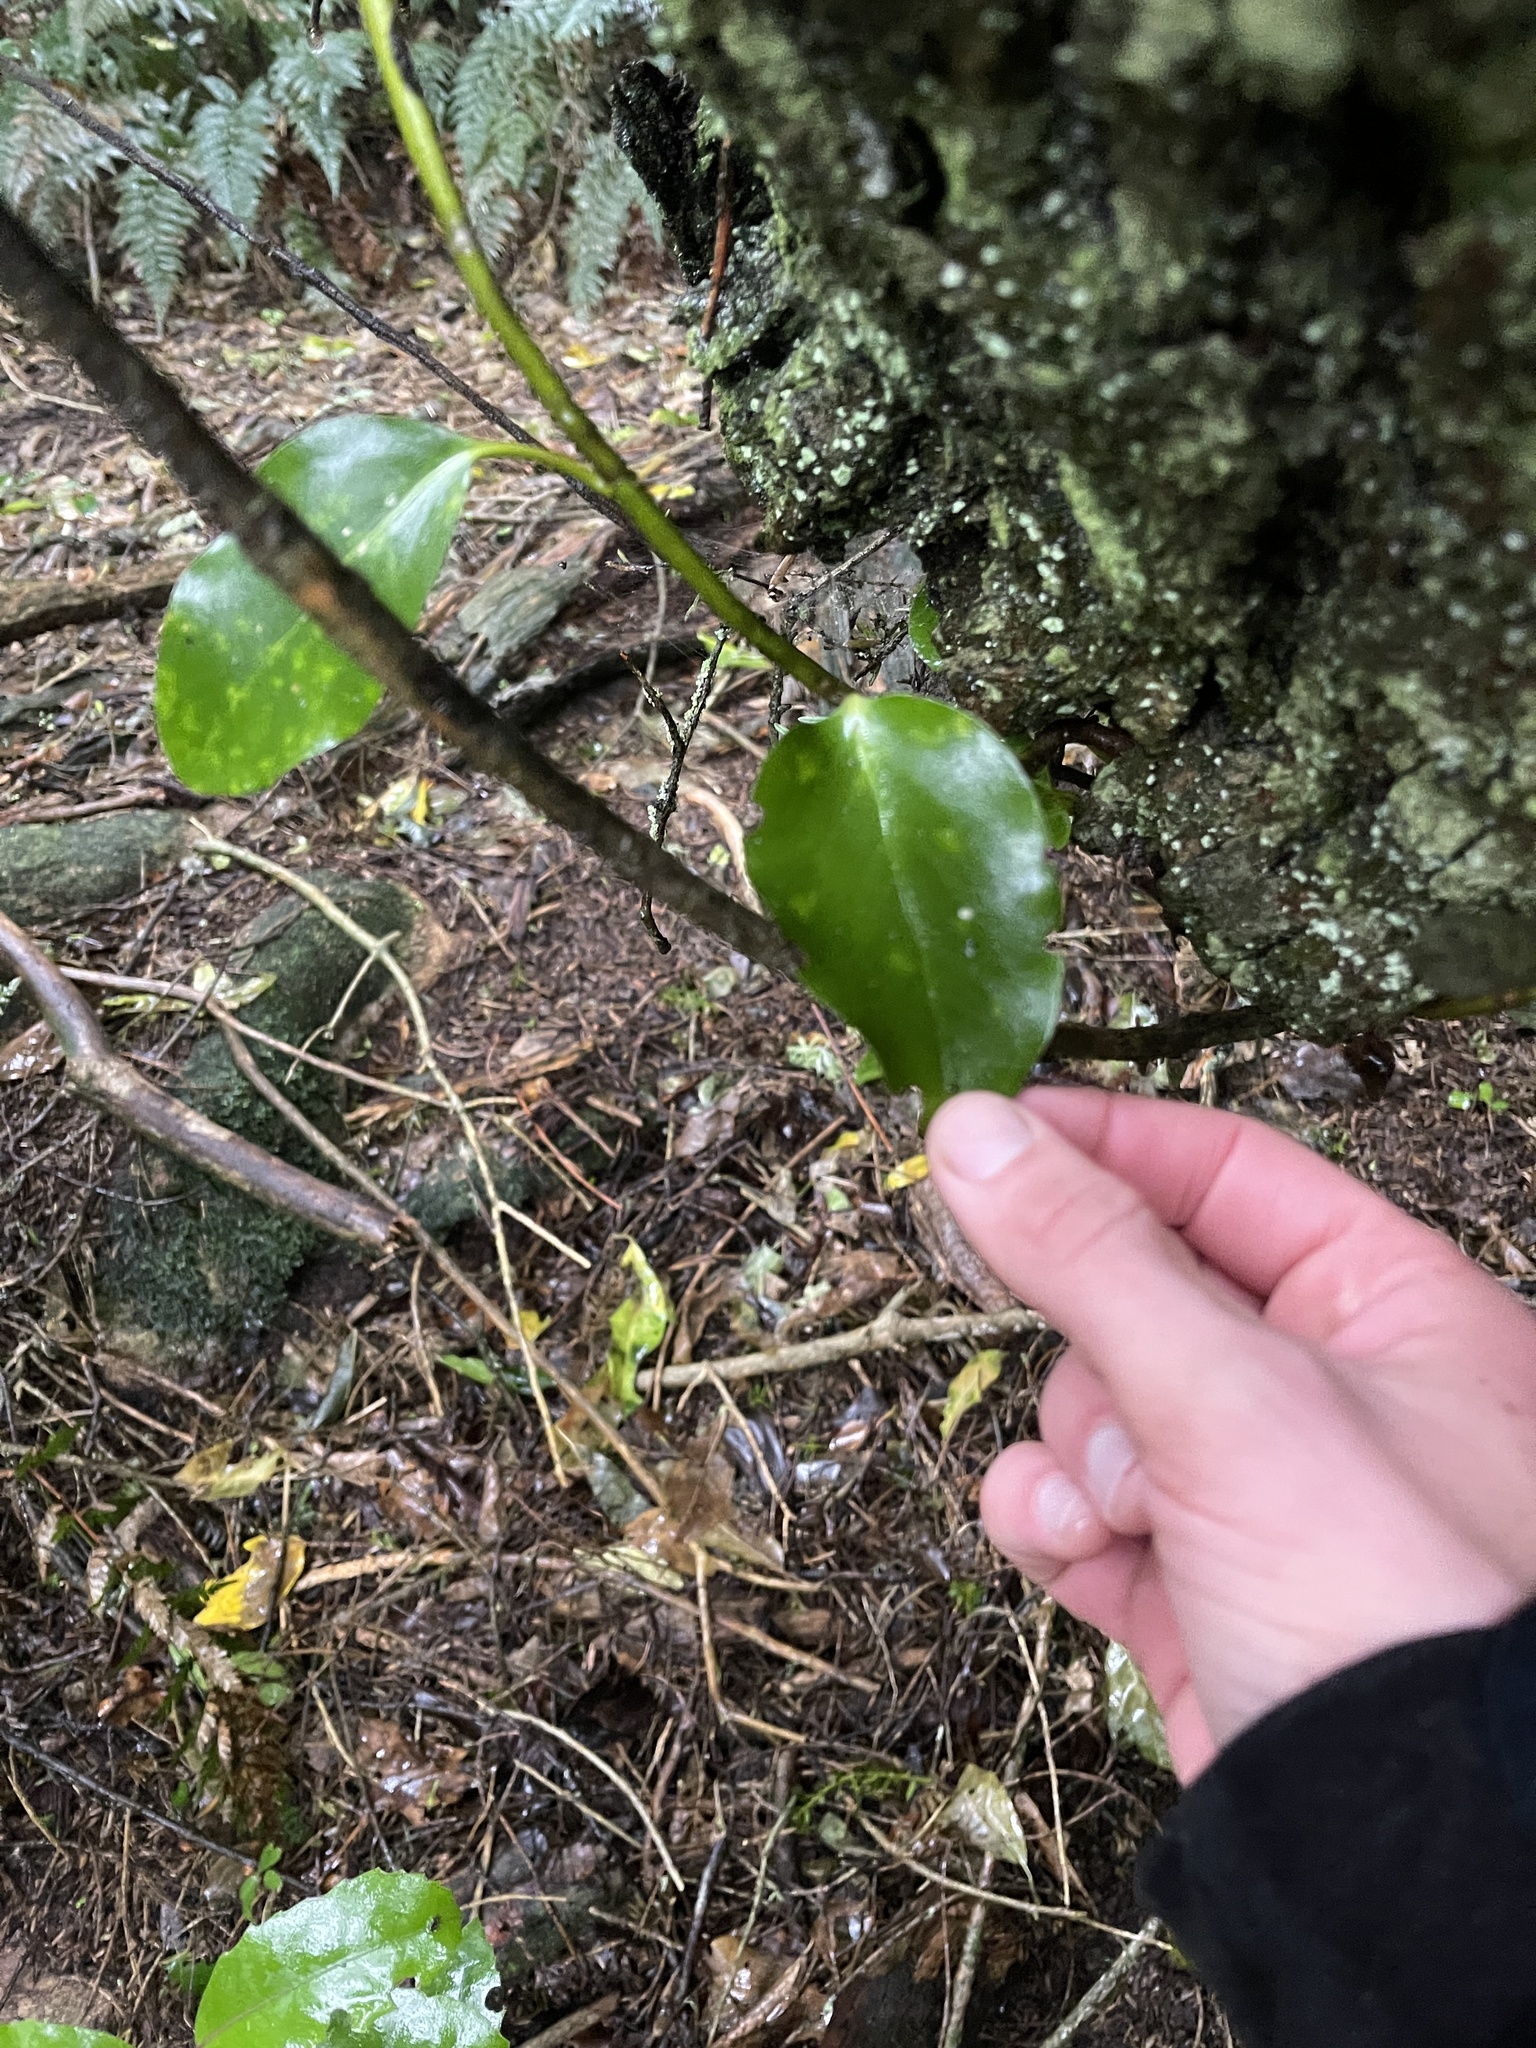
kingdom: Plantae
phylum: Tracheophyta
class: Magnoliopsida
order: Apiales
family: Griseliniaceae
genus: Griselinia
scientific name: Griselinia littoralis
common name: New zealand broadleaf
